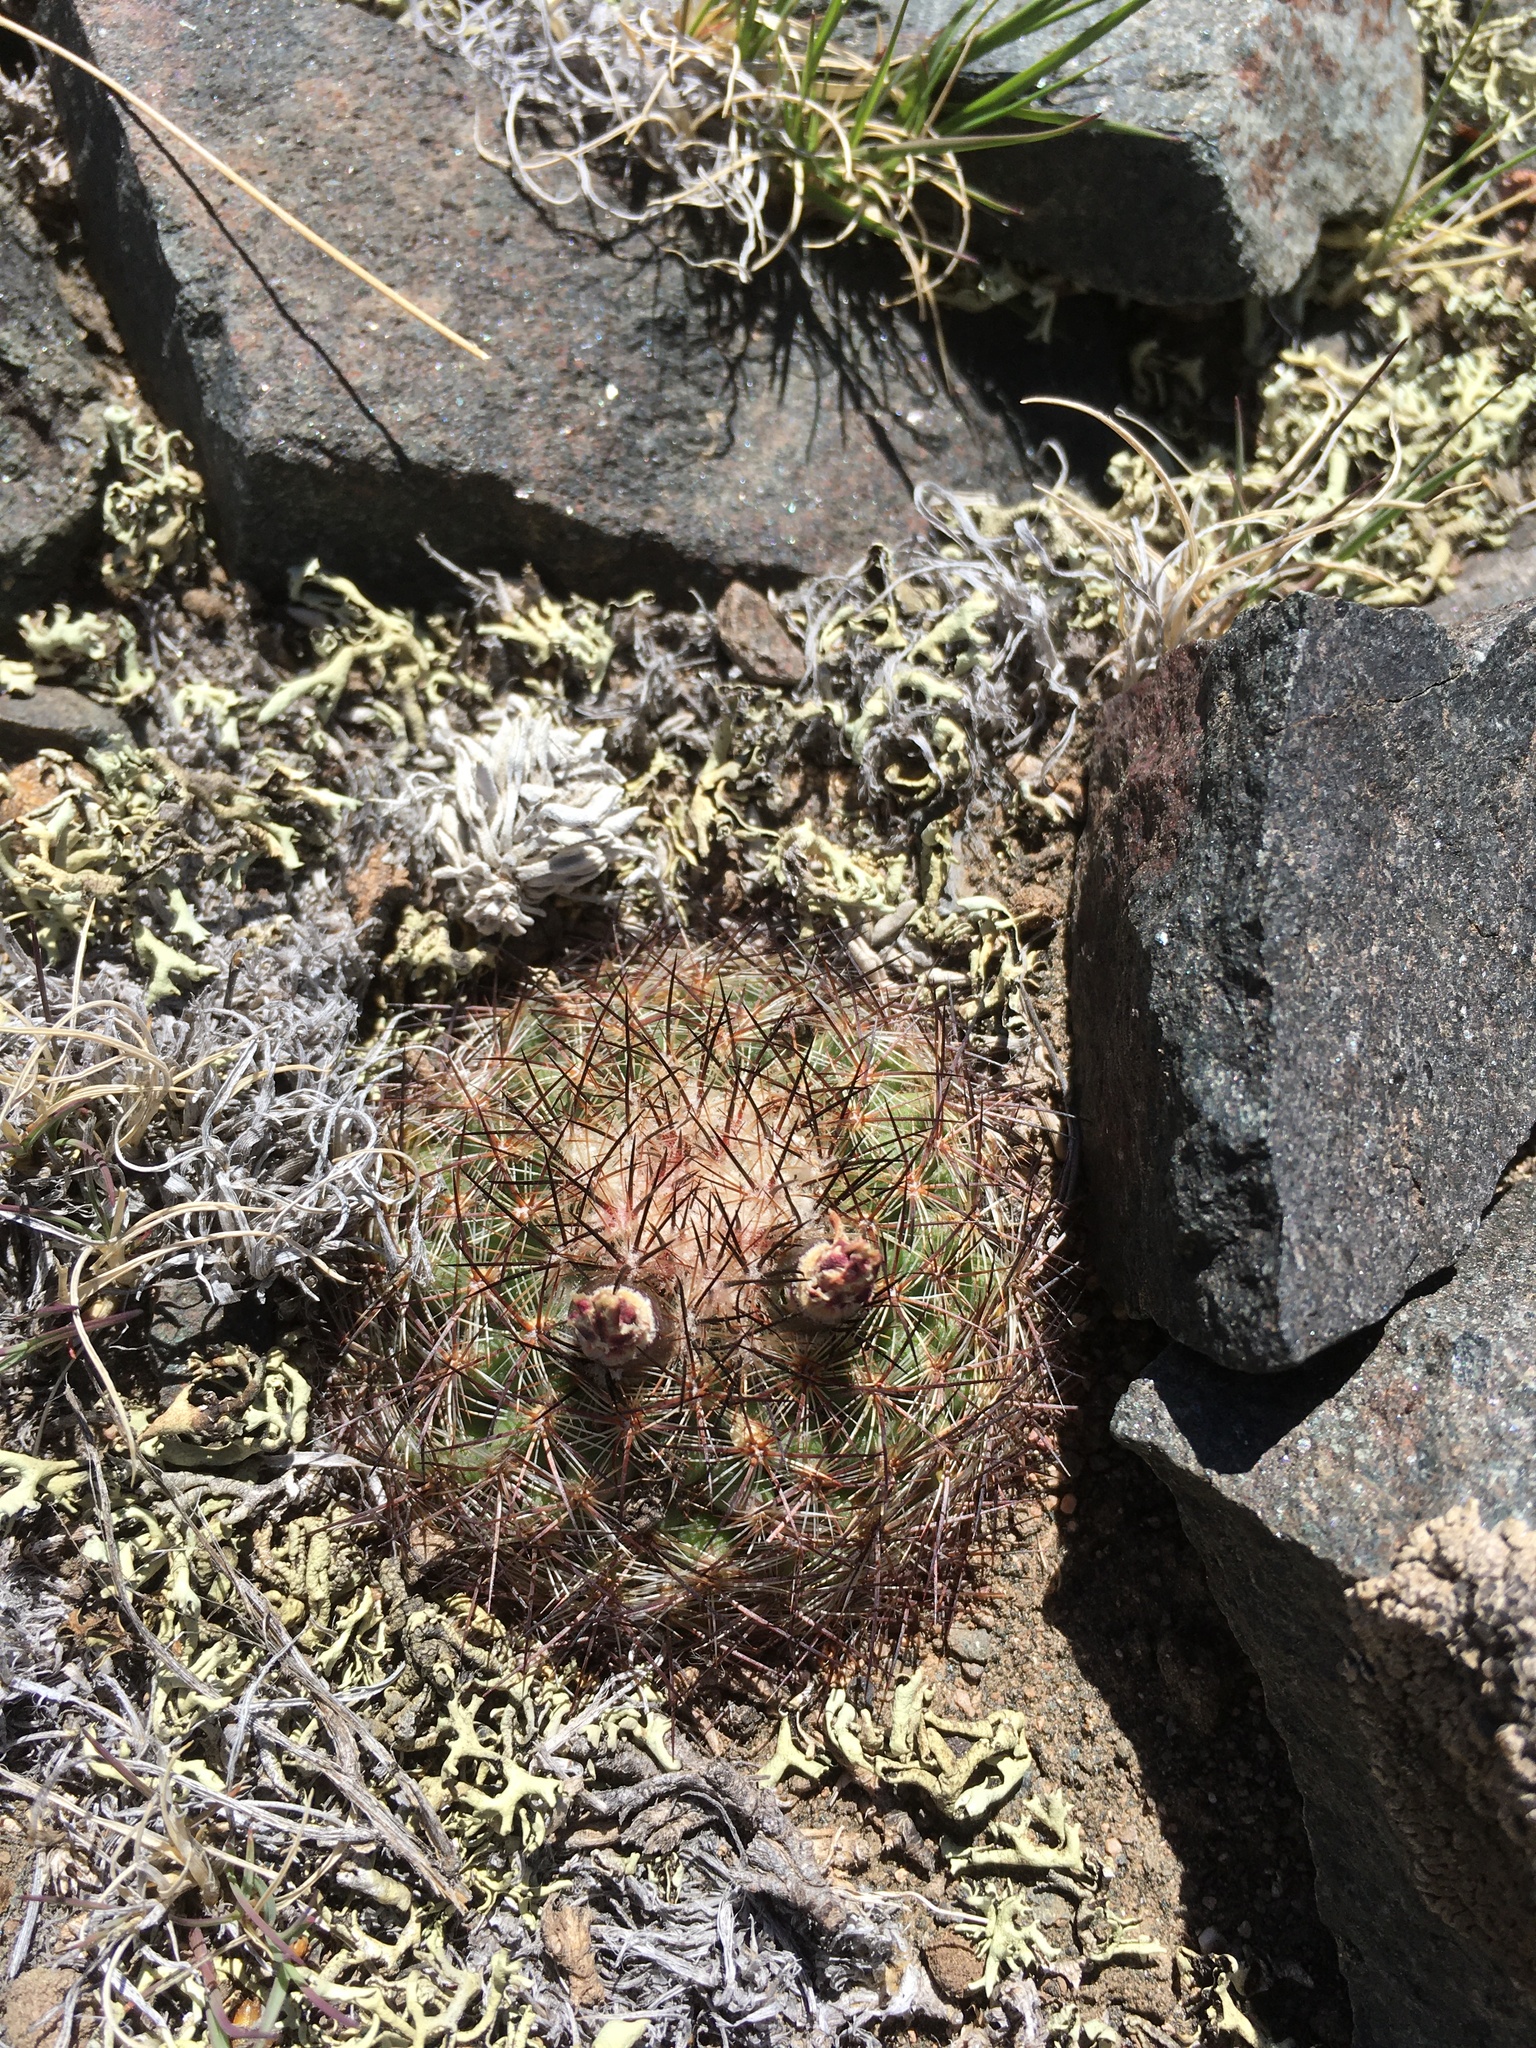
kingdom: Plantae
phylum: Tracheophyta
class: Magnoliopsida
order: Caryophyllales
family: Cactaceae
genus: Pediocactus
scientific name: Pediocactus simpsonii
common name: Simpson's hedgehog cactus
